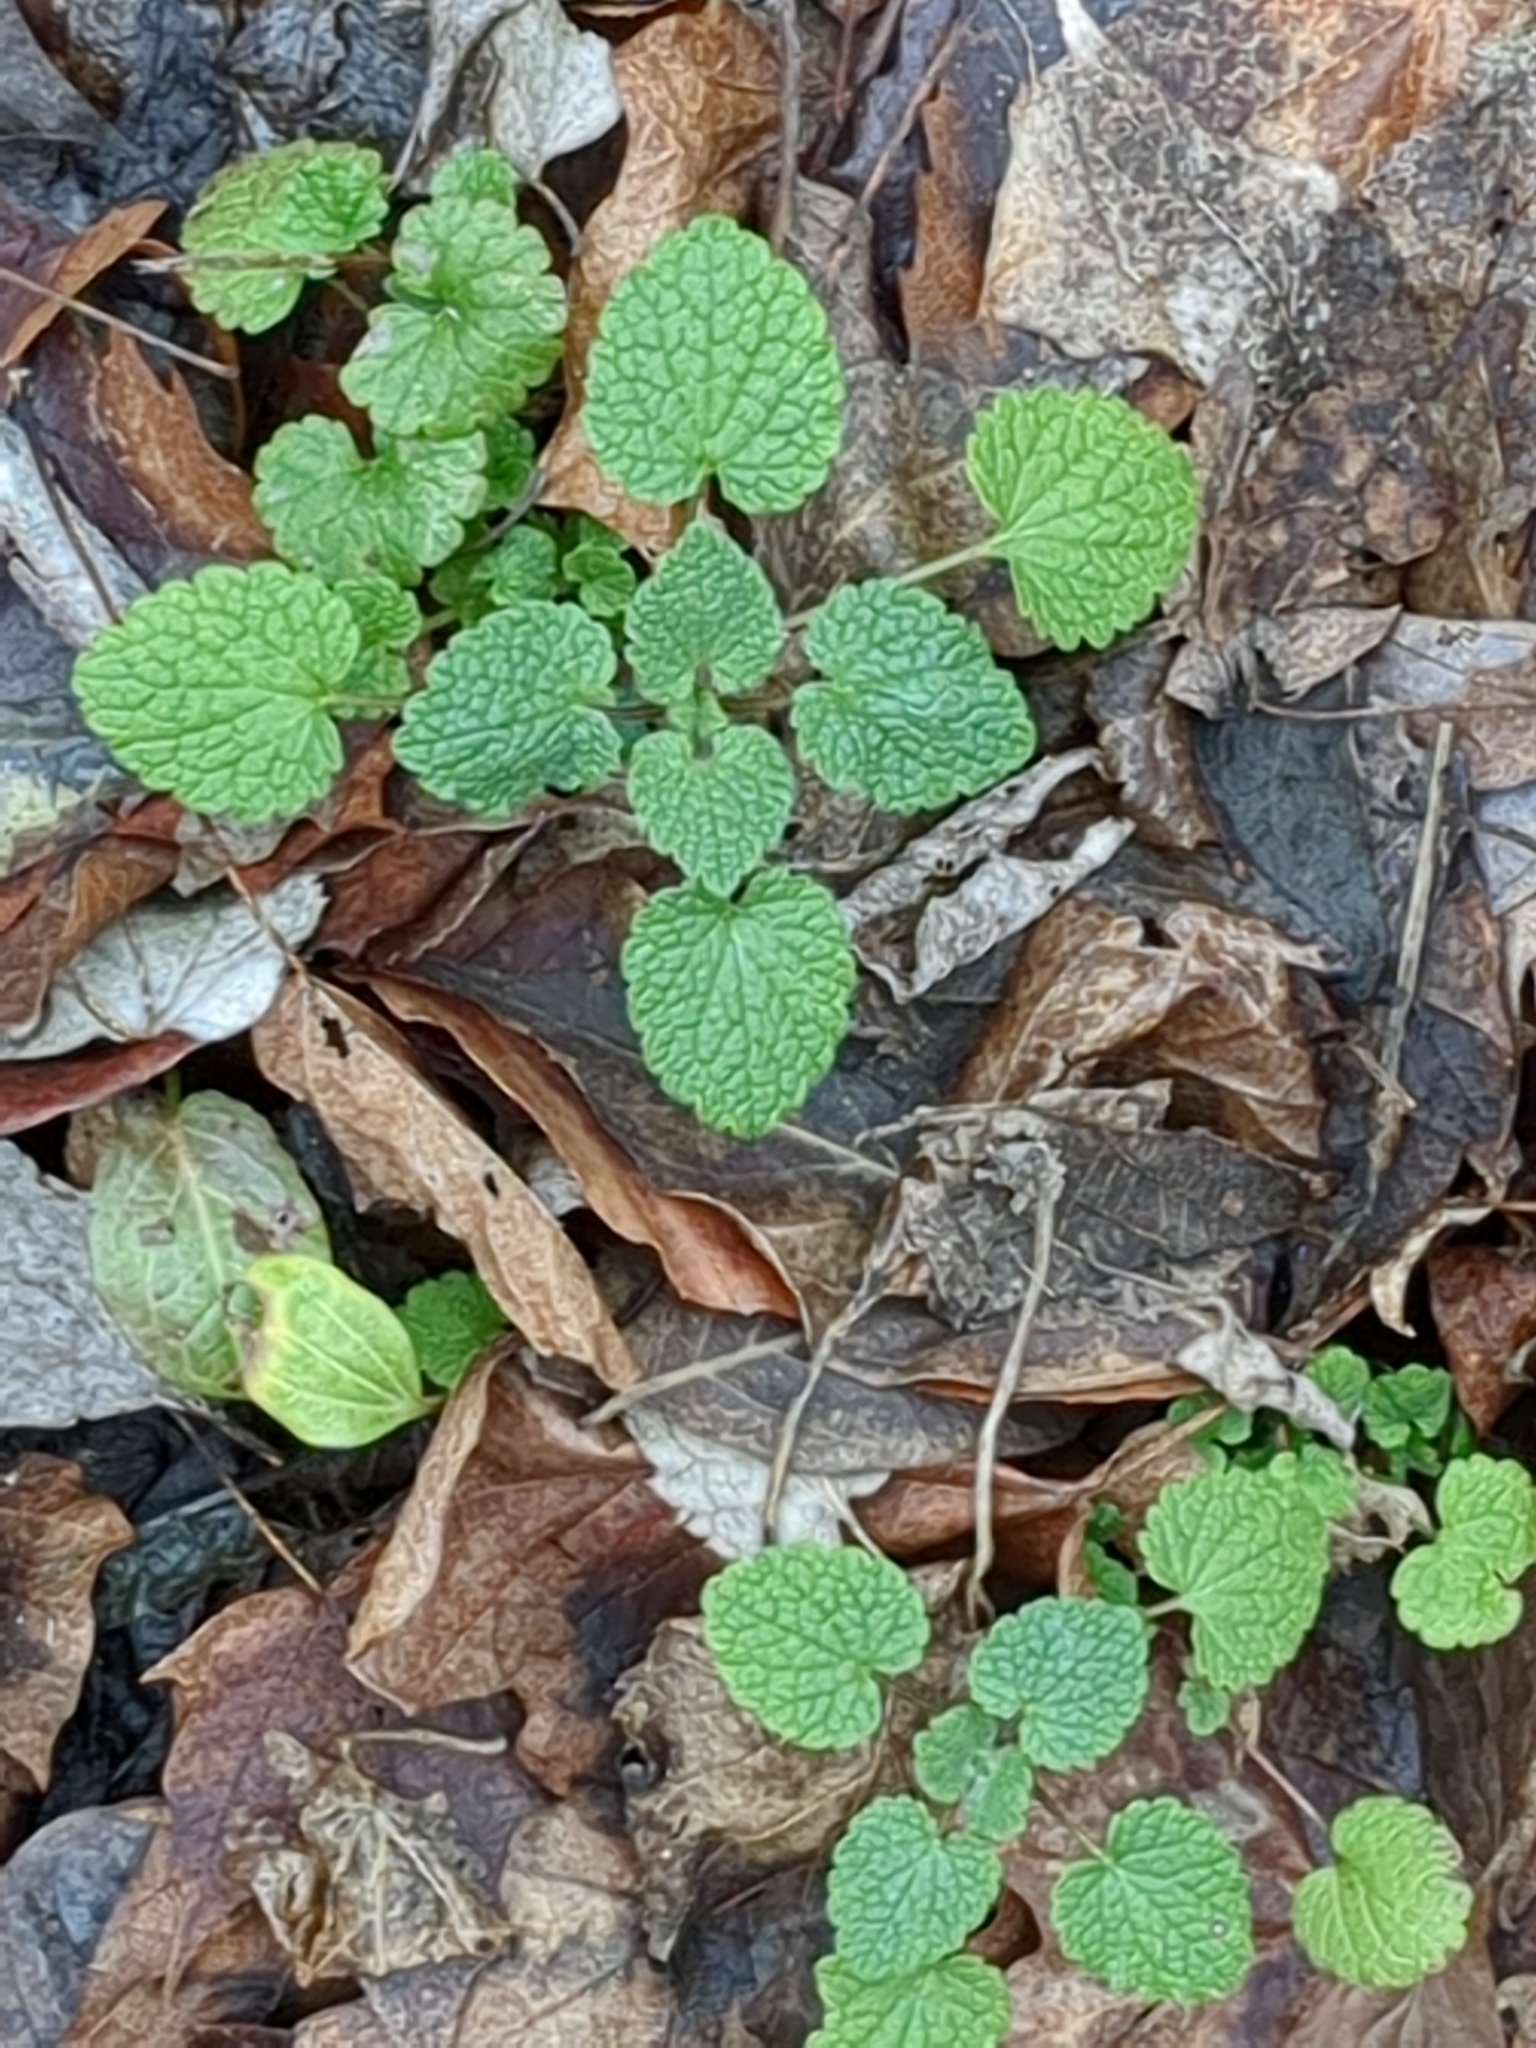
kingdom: Plantae
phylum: Tracheophyta
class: Magnoliopsida
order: Lamiales
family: Lamiaceae
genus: Lamium
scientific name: Lamium purpureum
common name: Red dead-nettle
